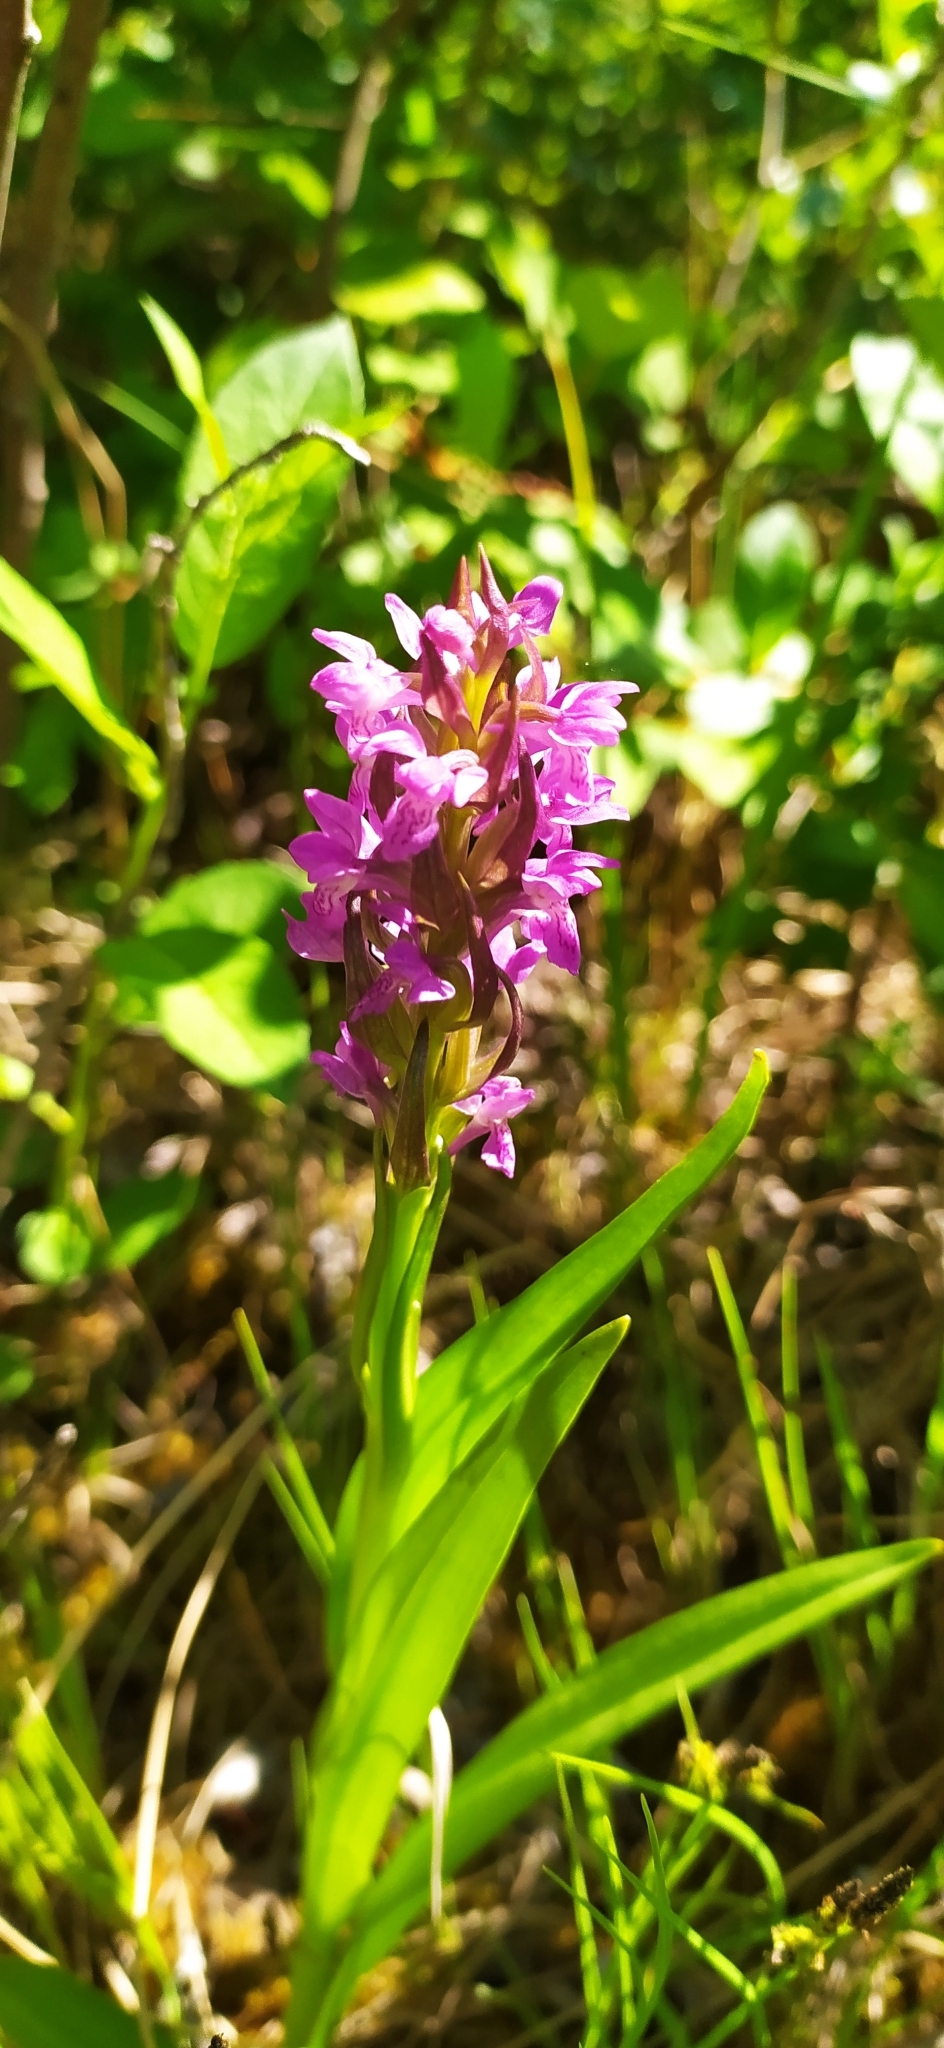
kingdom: Plantae
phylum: Tracheophyta
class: Liliopsida
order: Asparagales
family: Orchidaceae
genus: Dactylorhiza
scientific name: Dactylorhiza incarnata
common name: Early marsh-orchid
